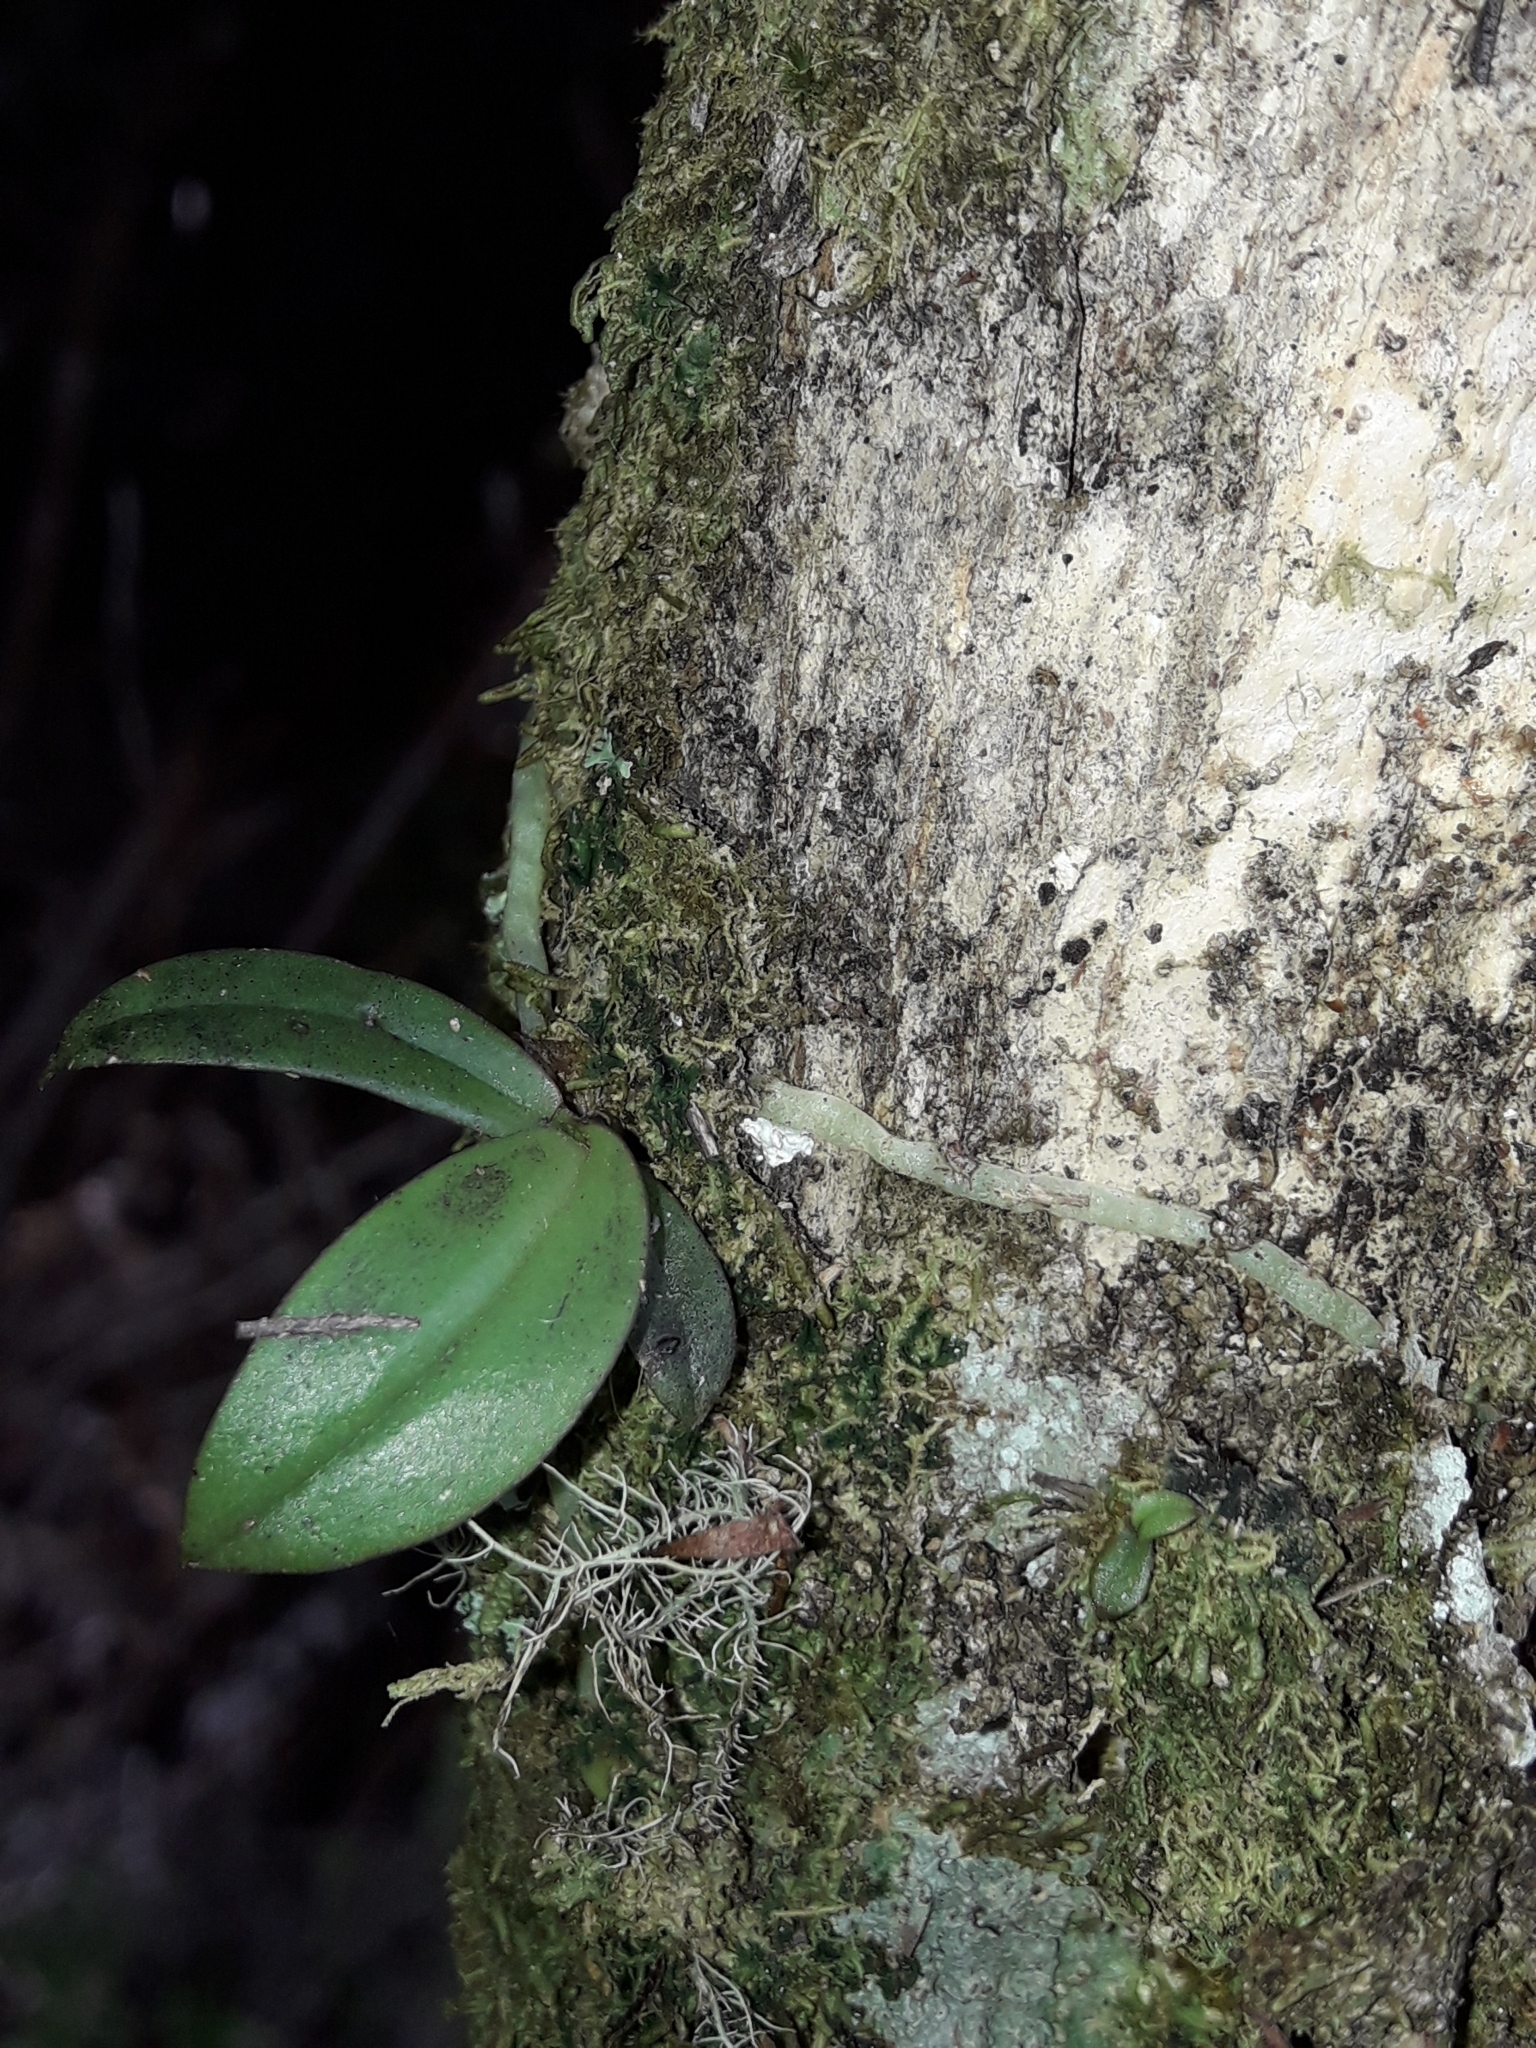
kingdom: Plantae
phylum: Tracheophyta
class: Liliopsida
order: Asparagales
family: Orchidaceae
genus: Drymoanthus
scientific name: Drymoanthus adversus
